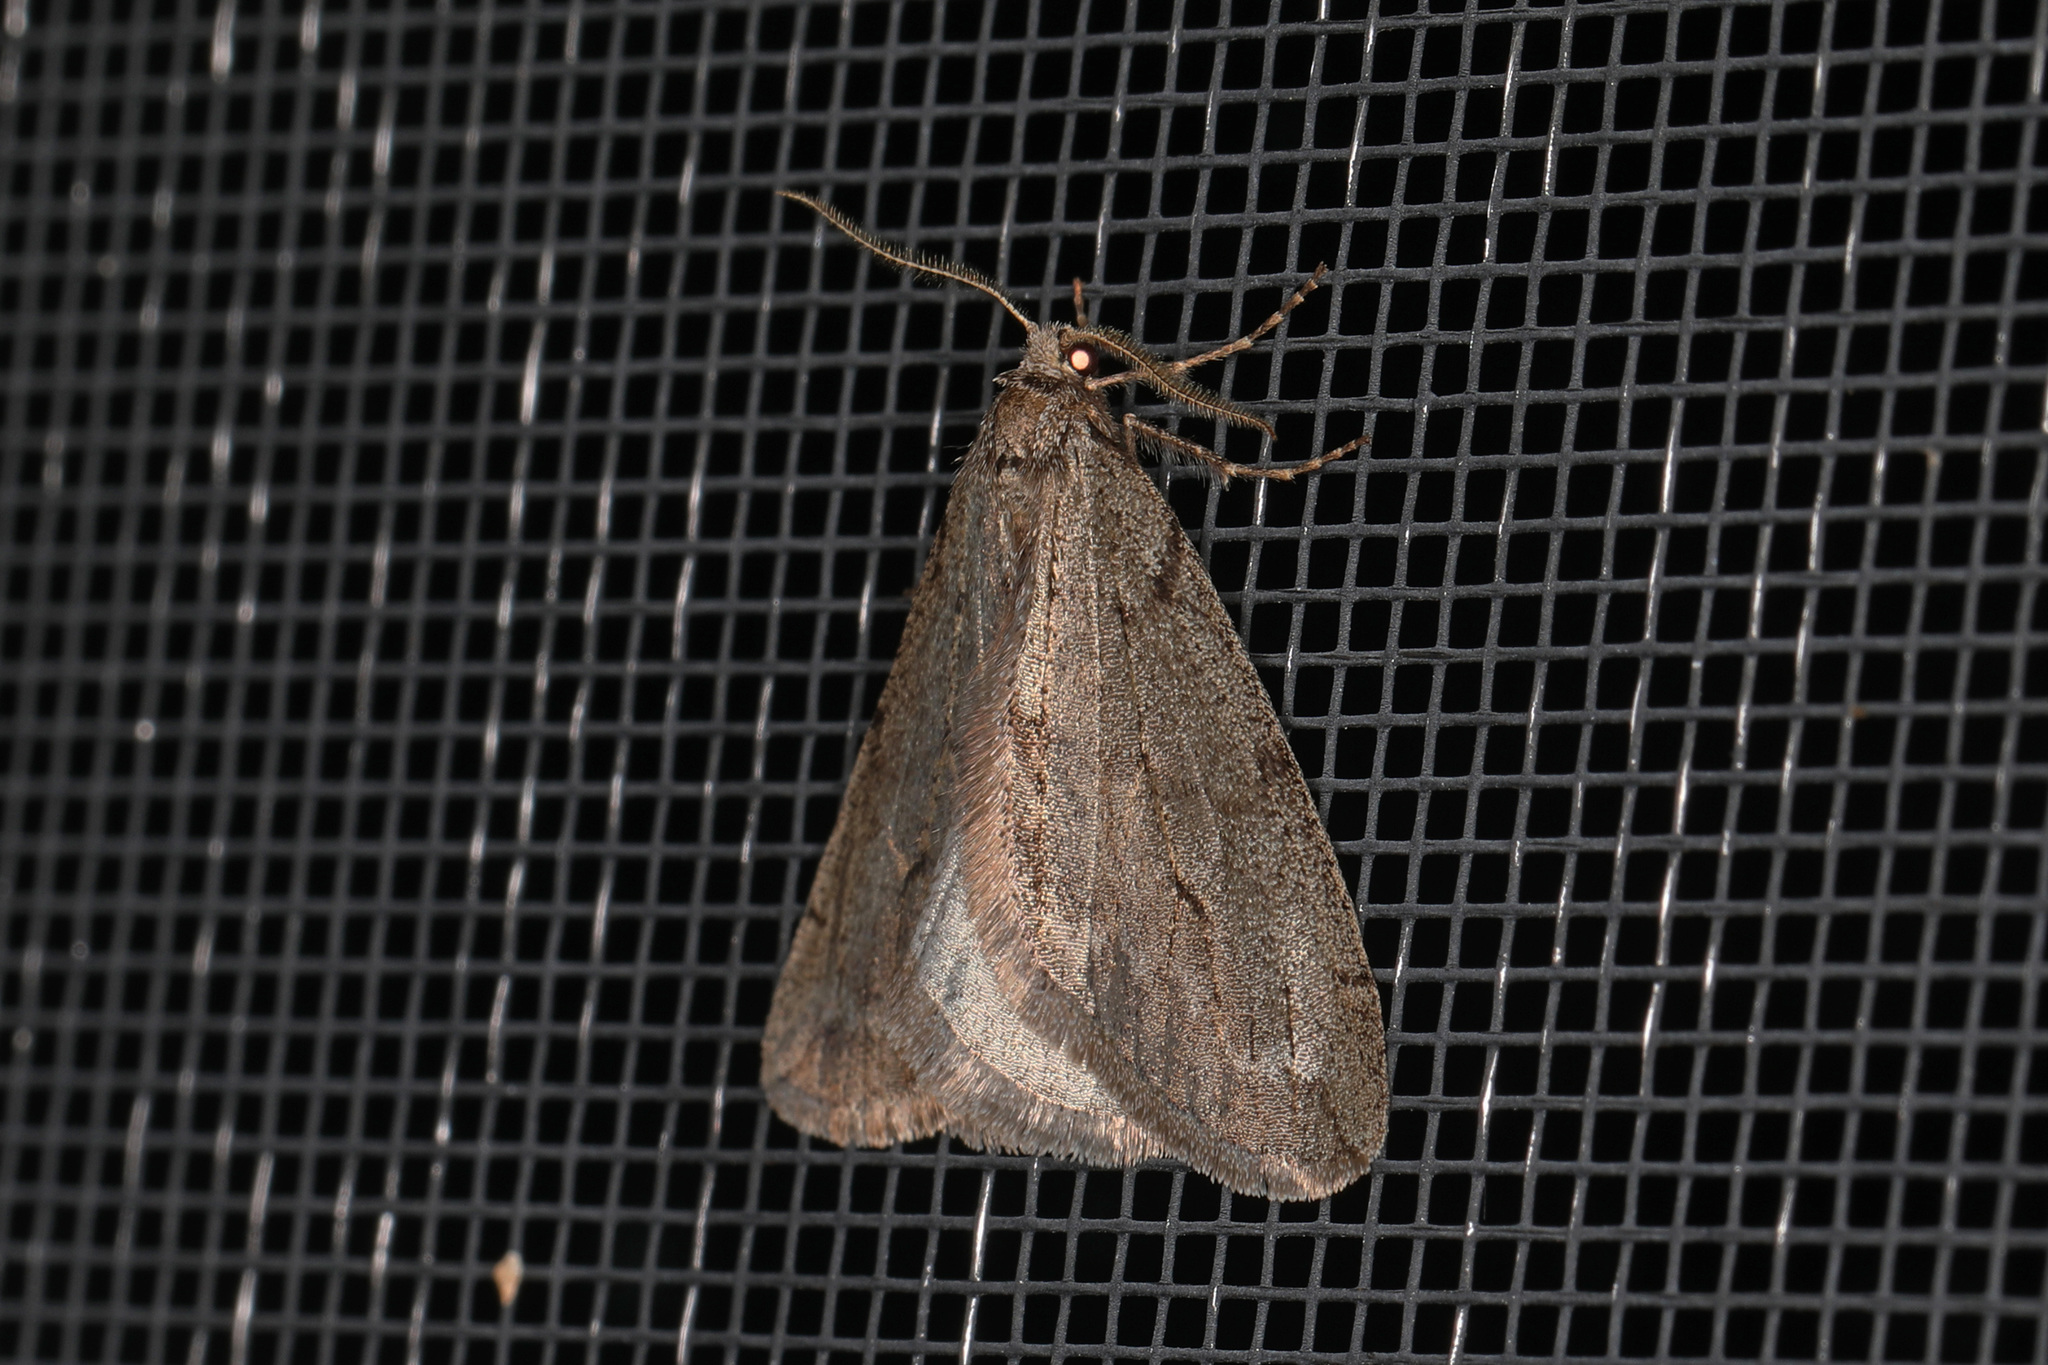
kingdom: Animalia
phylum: Arthropoda
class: Insecta
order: Lepidoptera
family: Geometridae
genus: Paleacrita
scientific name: Paleacrita vernata
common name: Spring cankerworm
